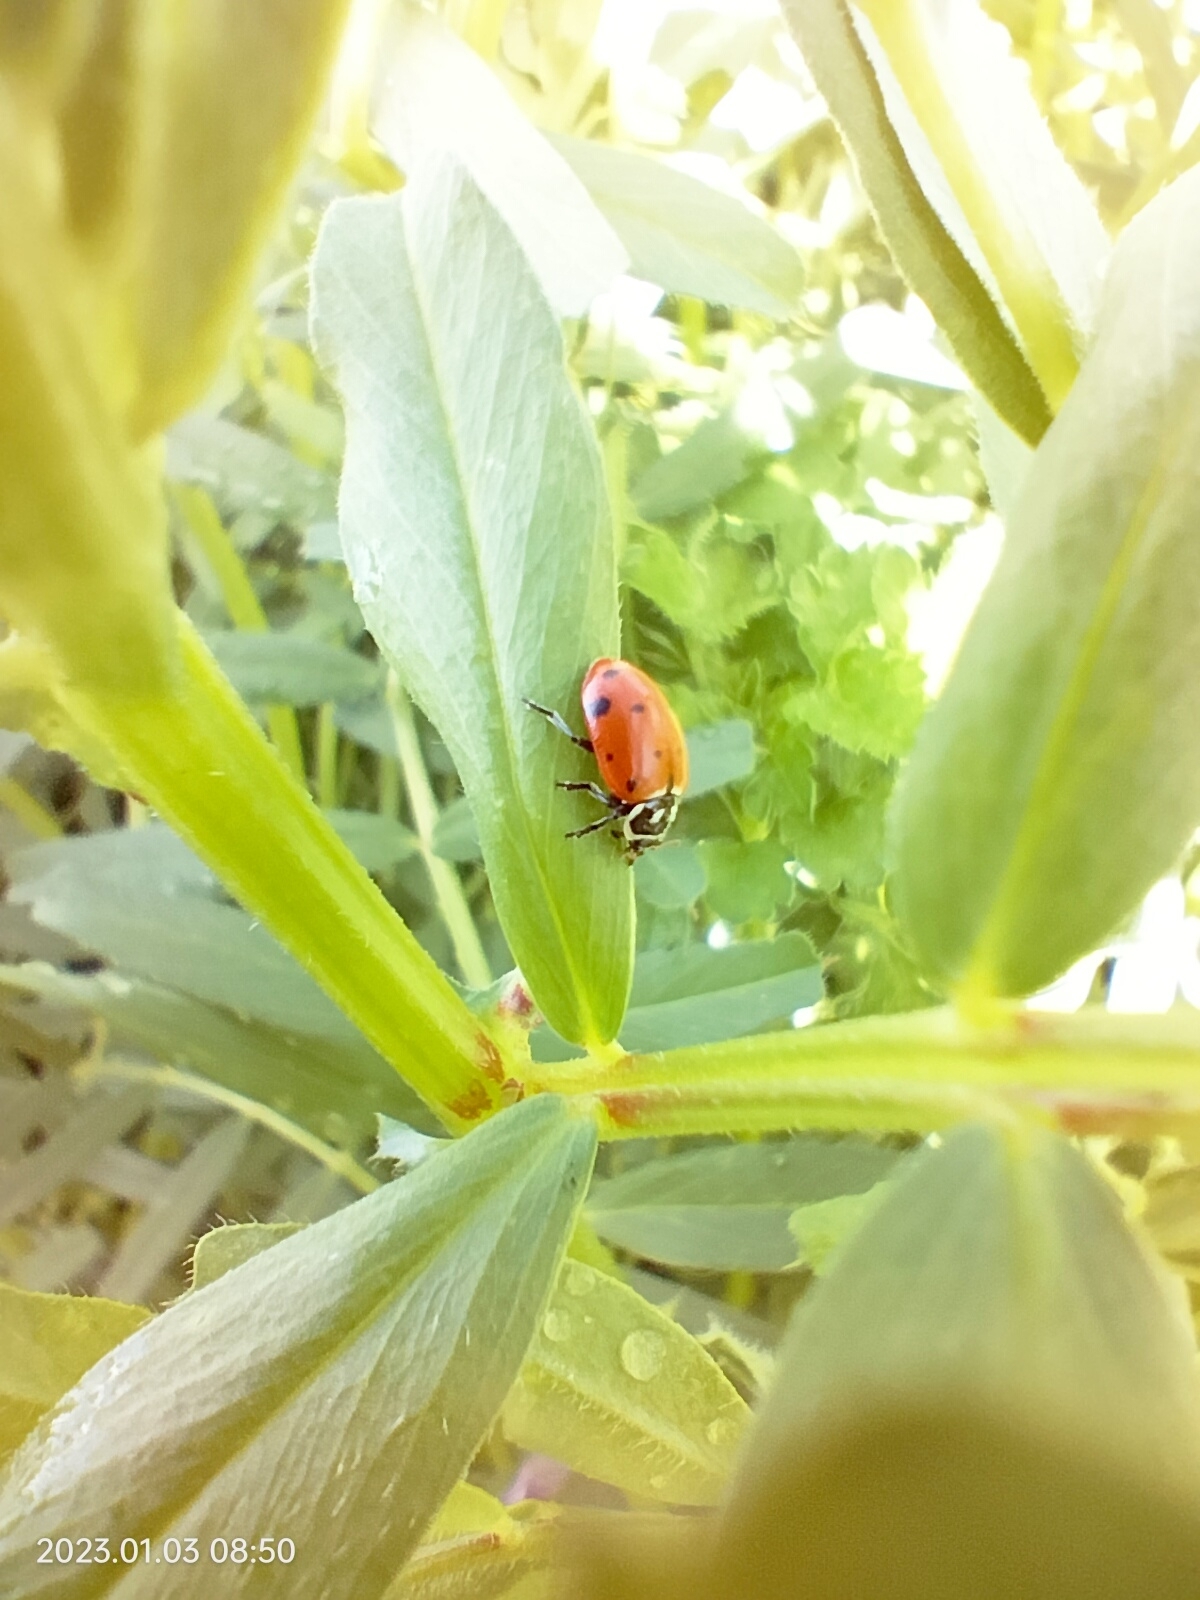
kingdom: Animalia
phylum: Arthropoda
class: Insecta
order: Coleoptera
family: Coccinellidae
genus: Hippodamia
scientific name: Hippodamia convergens
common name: Convergent lady beetle
